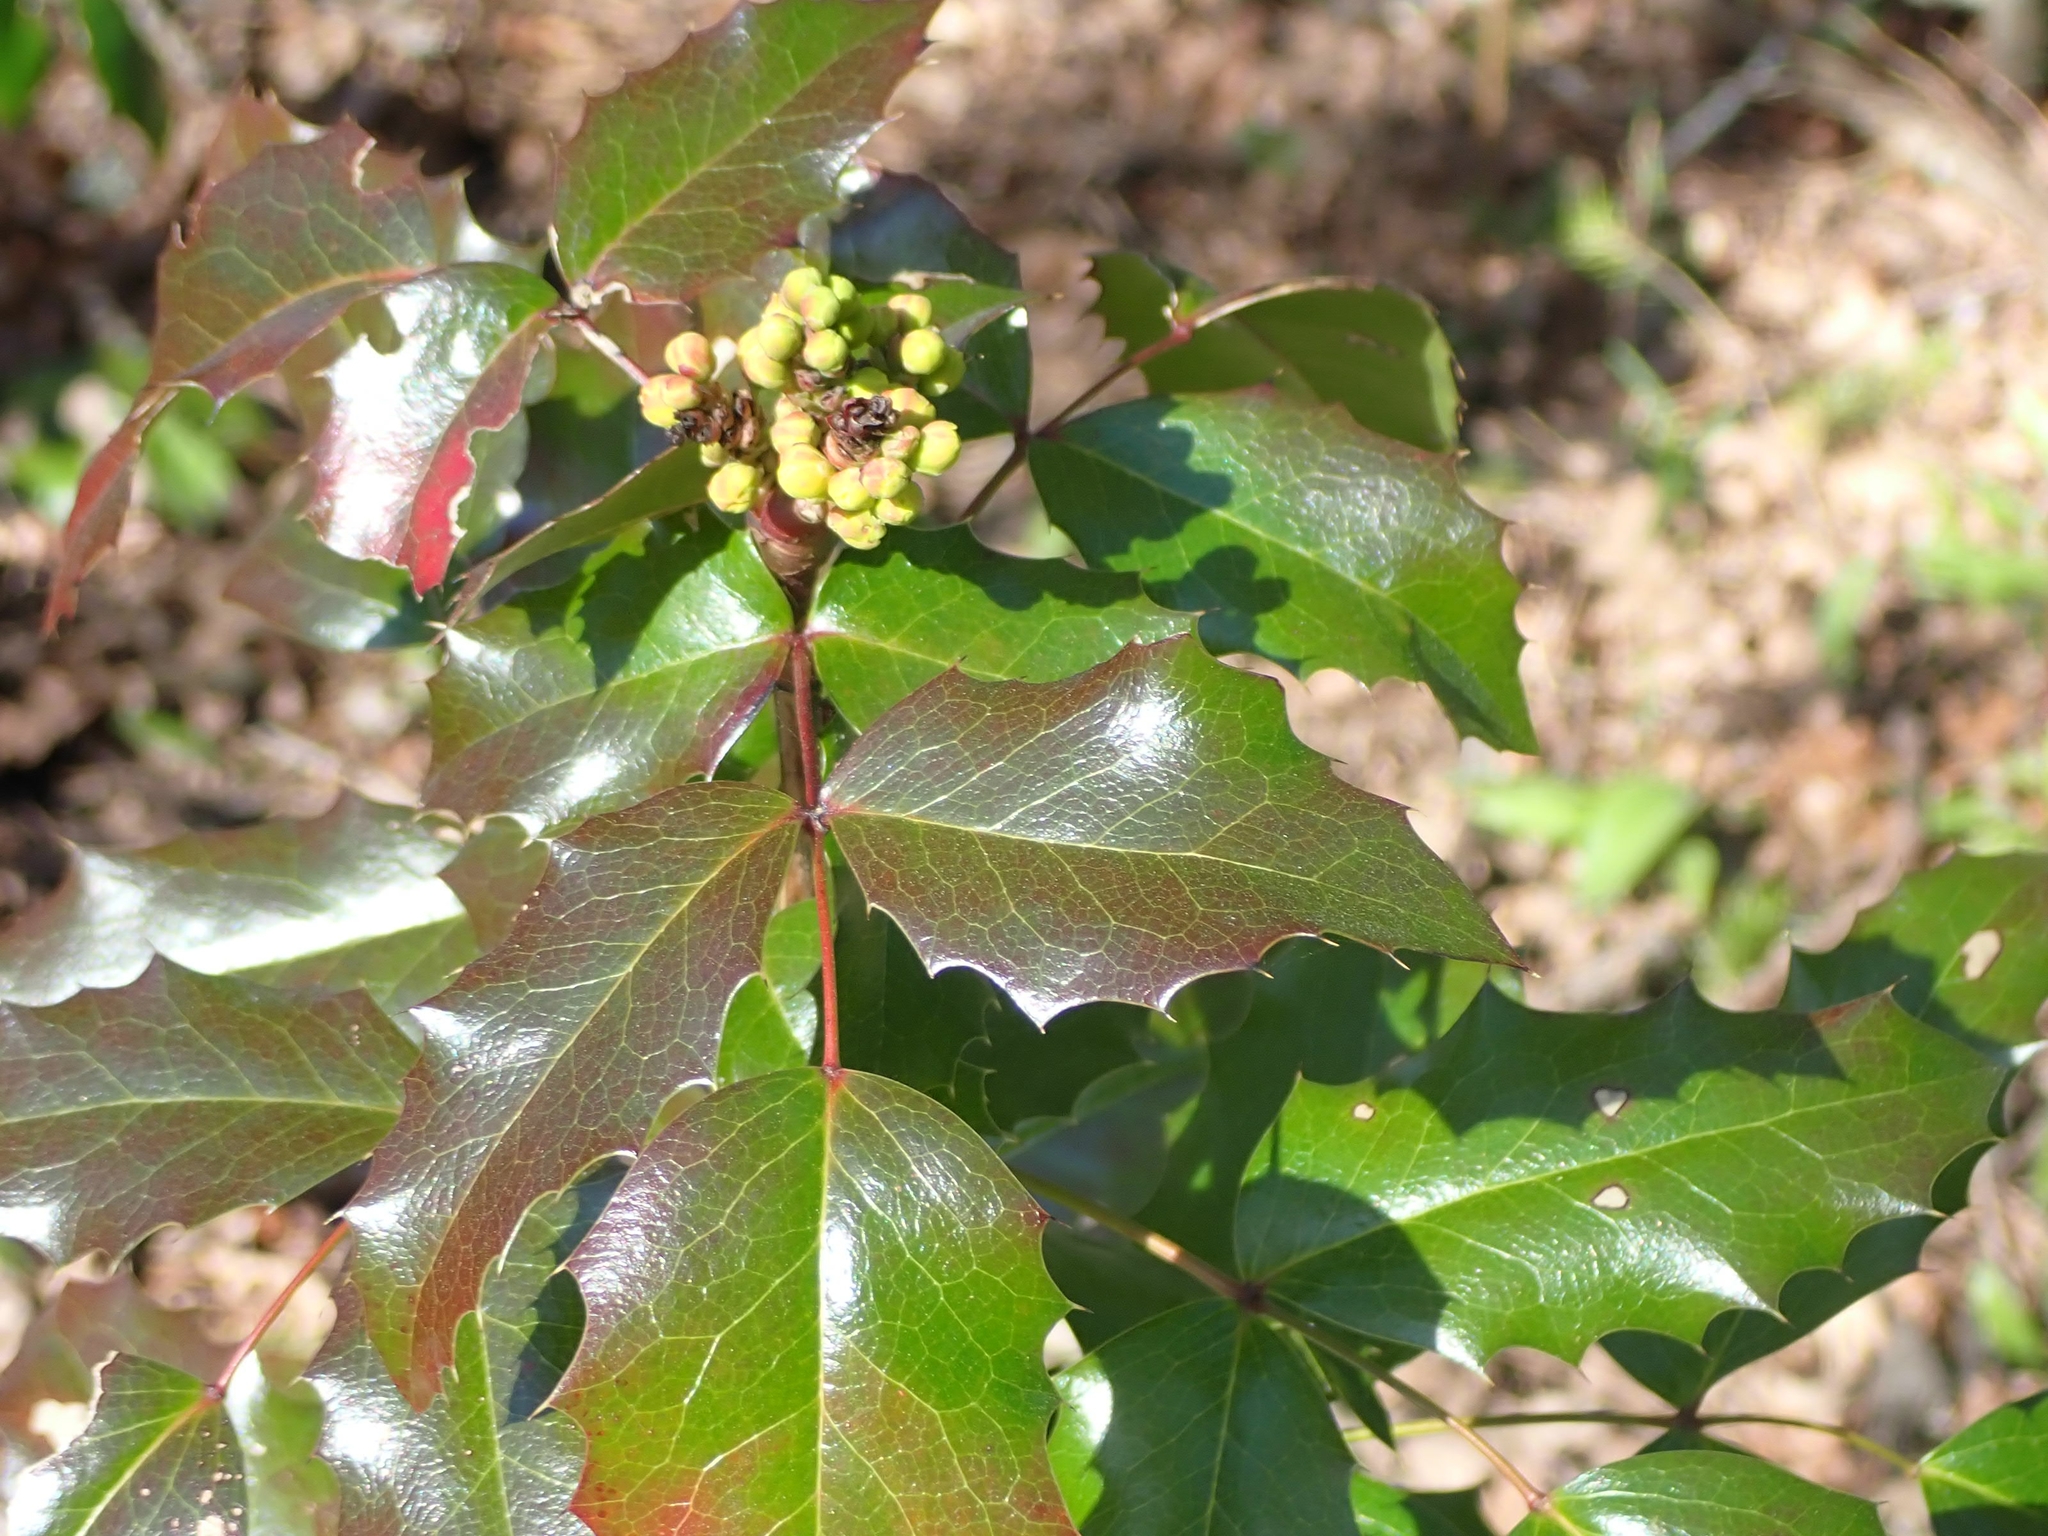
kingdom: Plantae
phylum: Tracheophyta
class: Magnoliopsida
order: Ranunculales
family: Berberidaceae
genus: Mahonia
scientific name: Mahonia aquifolium
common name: Oregon-grape
